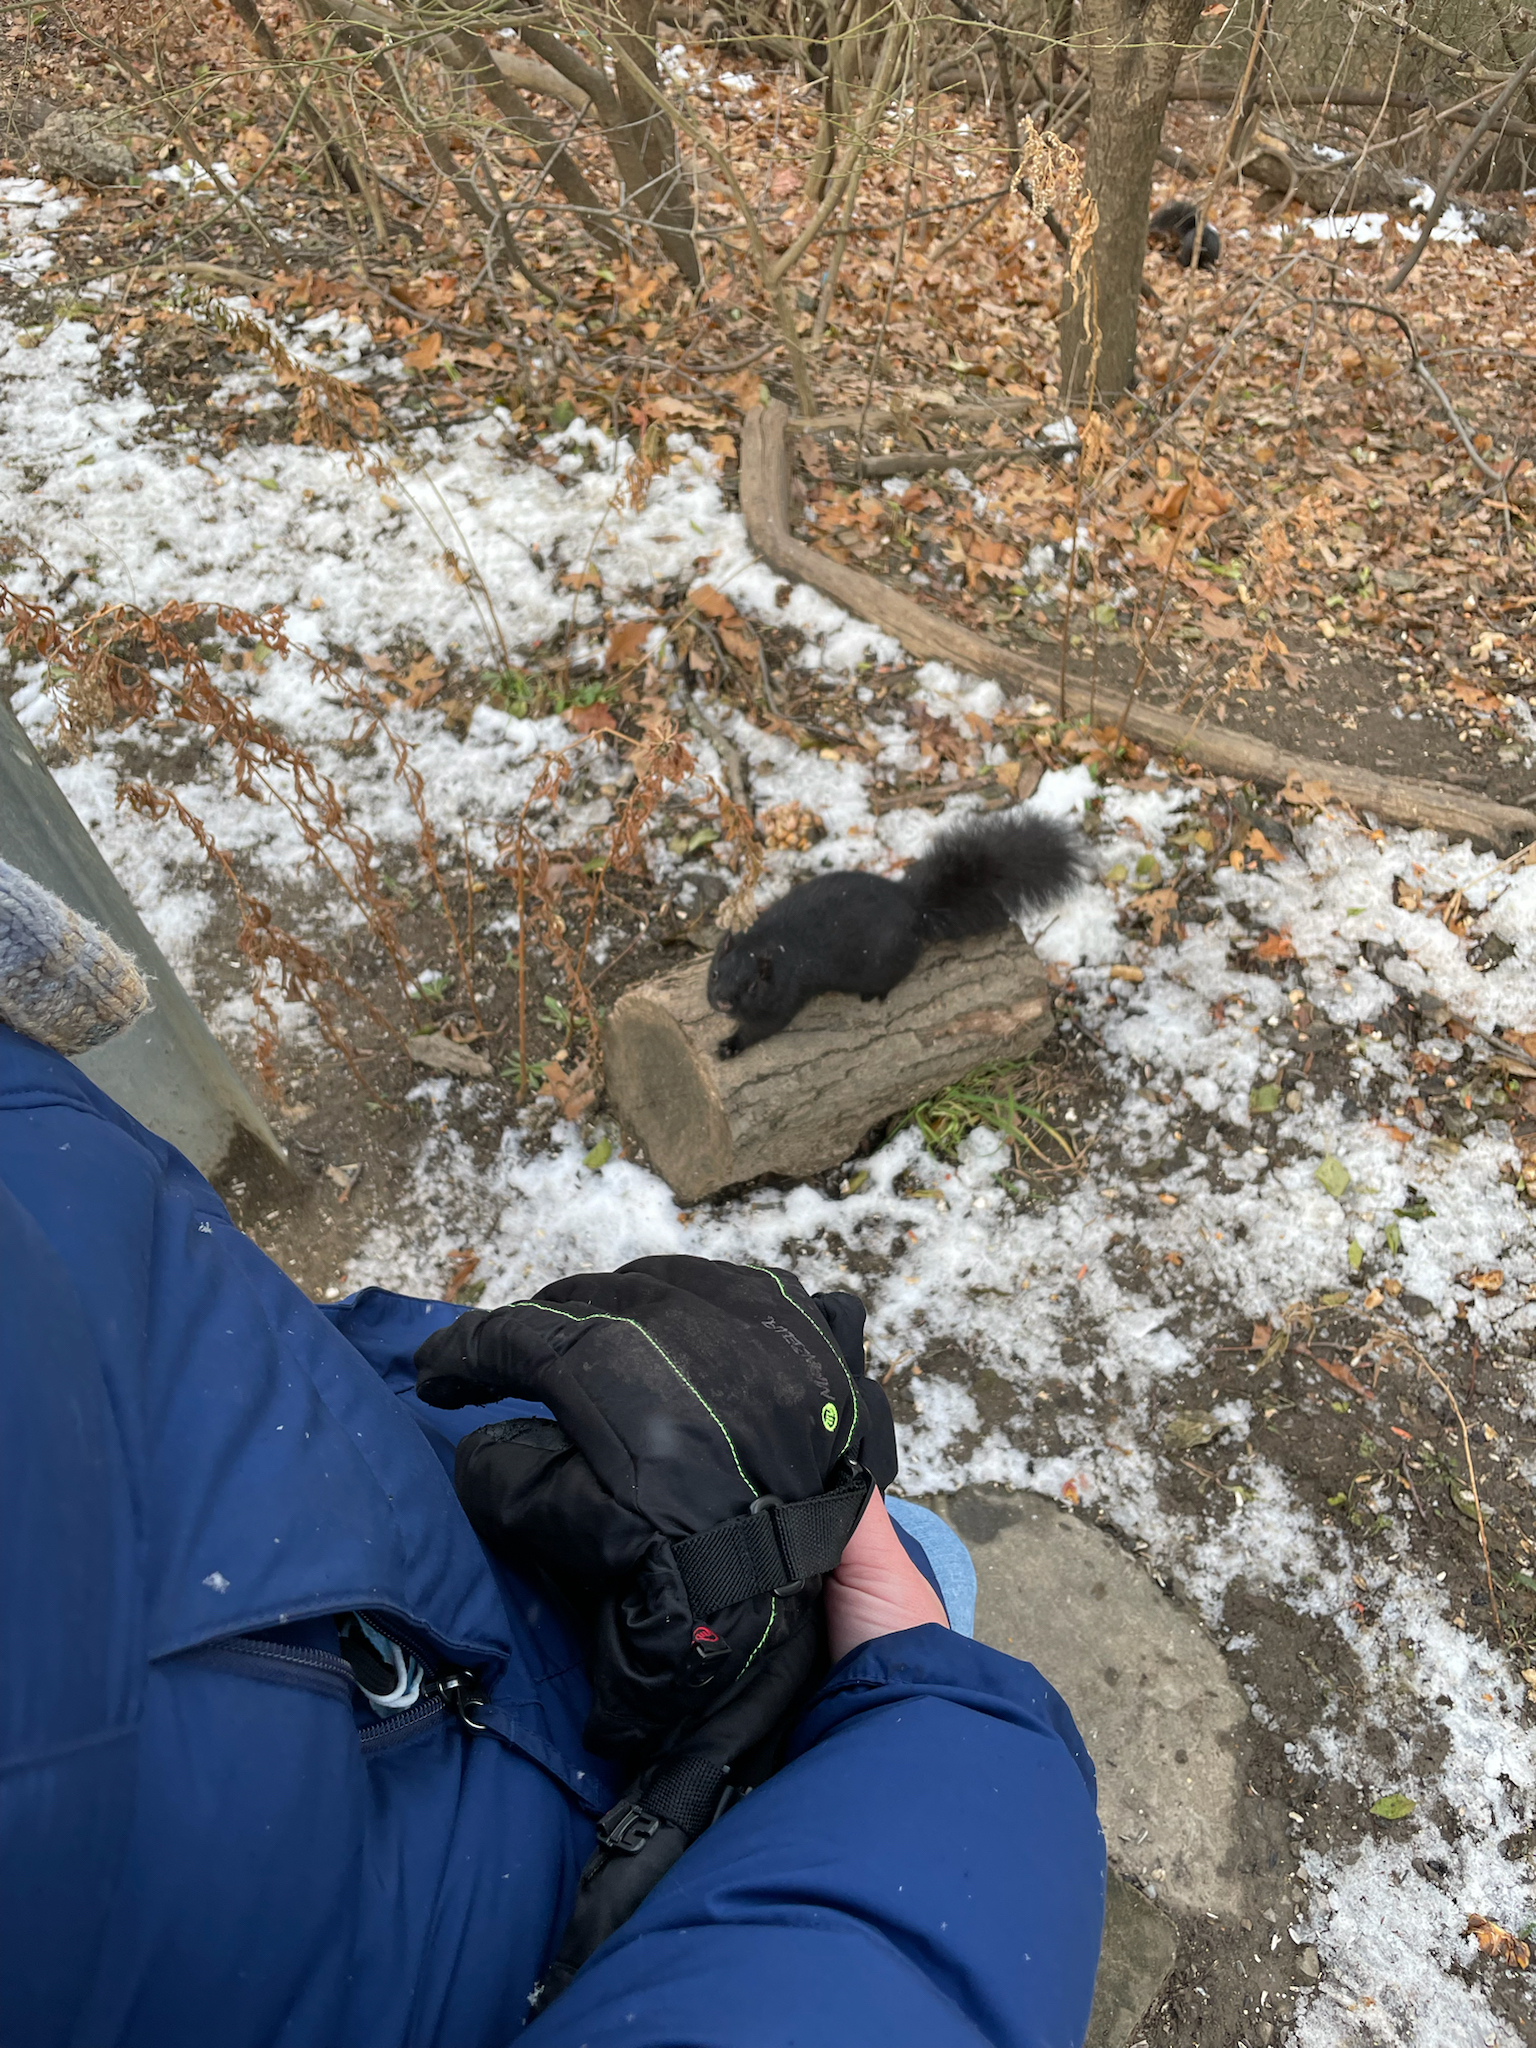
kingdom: Animalia
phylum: Chordata
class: Mammalia
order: Rodentia
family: Sciuridae
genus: Sciurus
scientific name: Sciurus carolinensis
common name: Eastern gray squirrel
